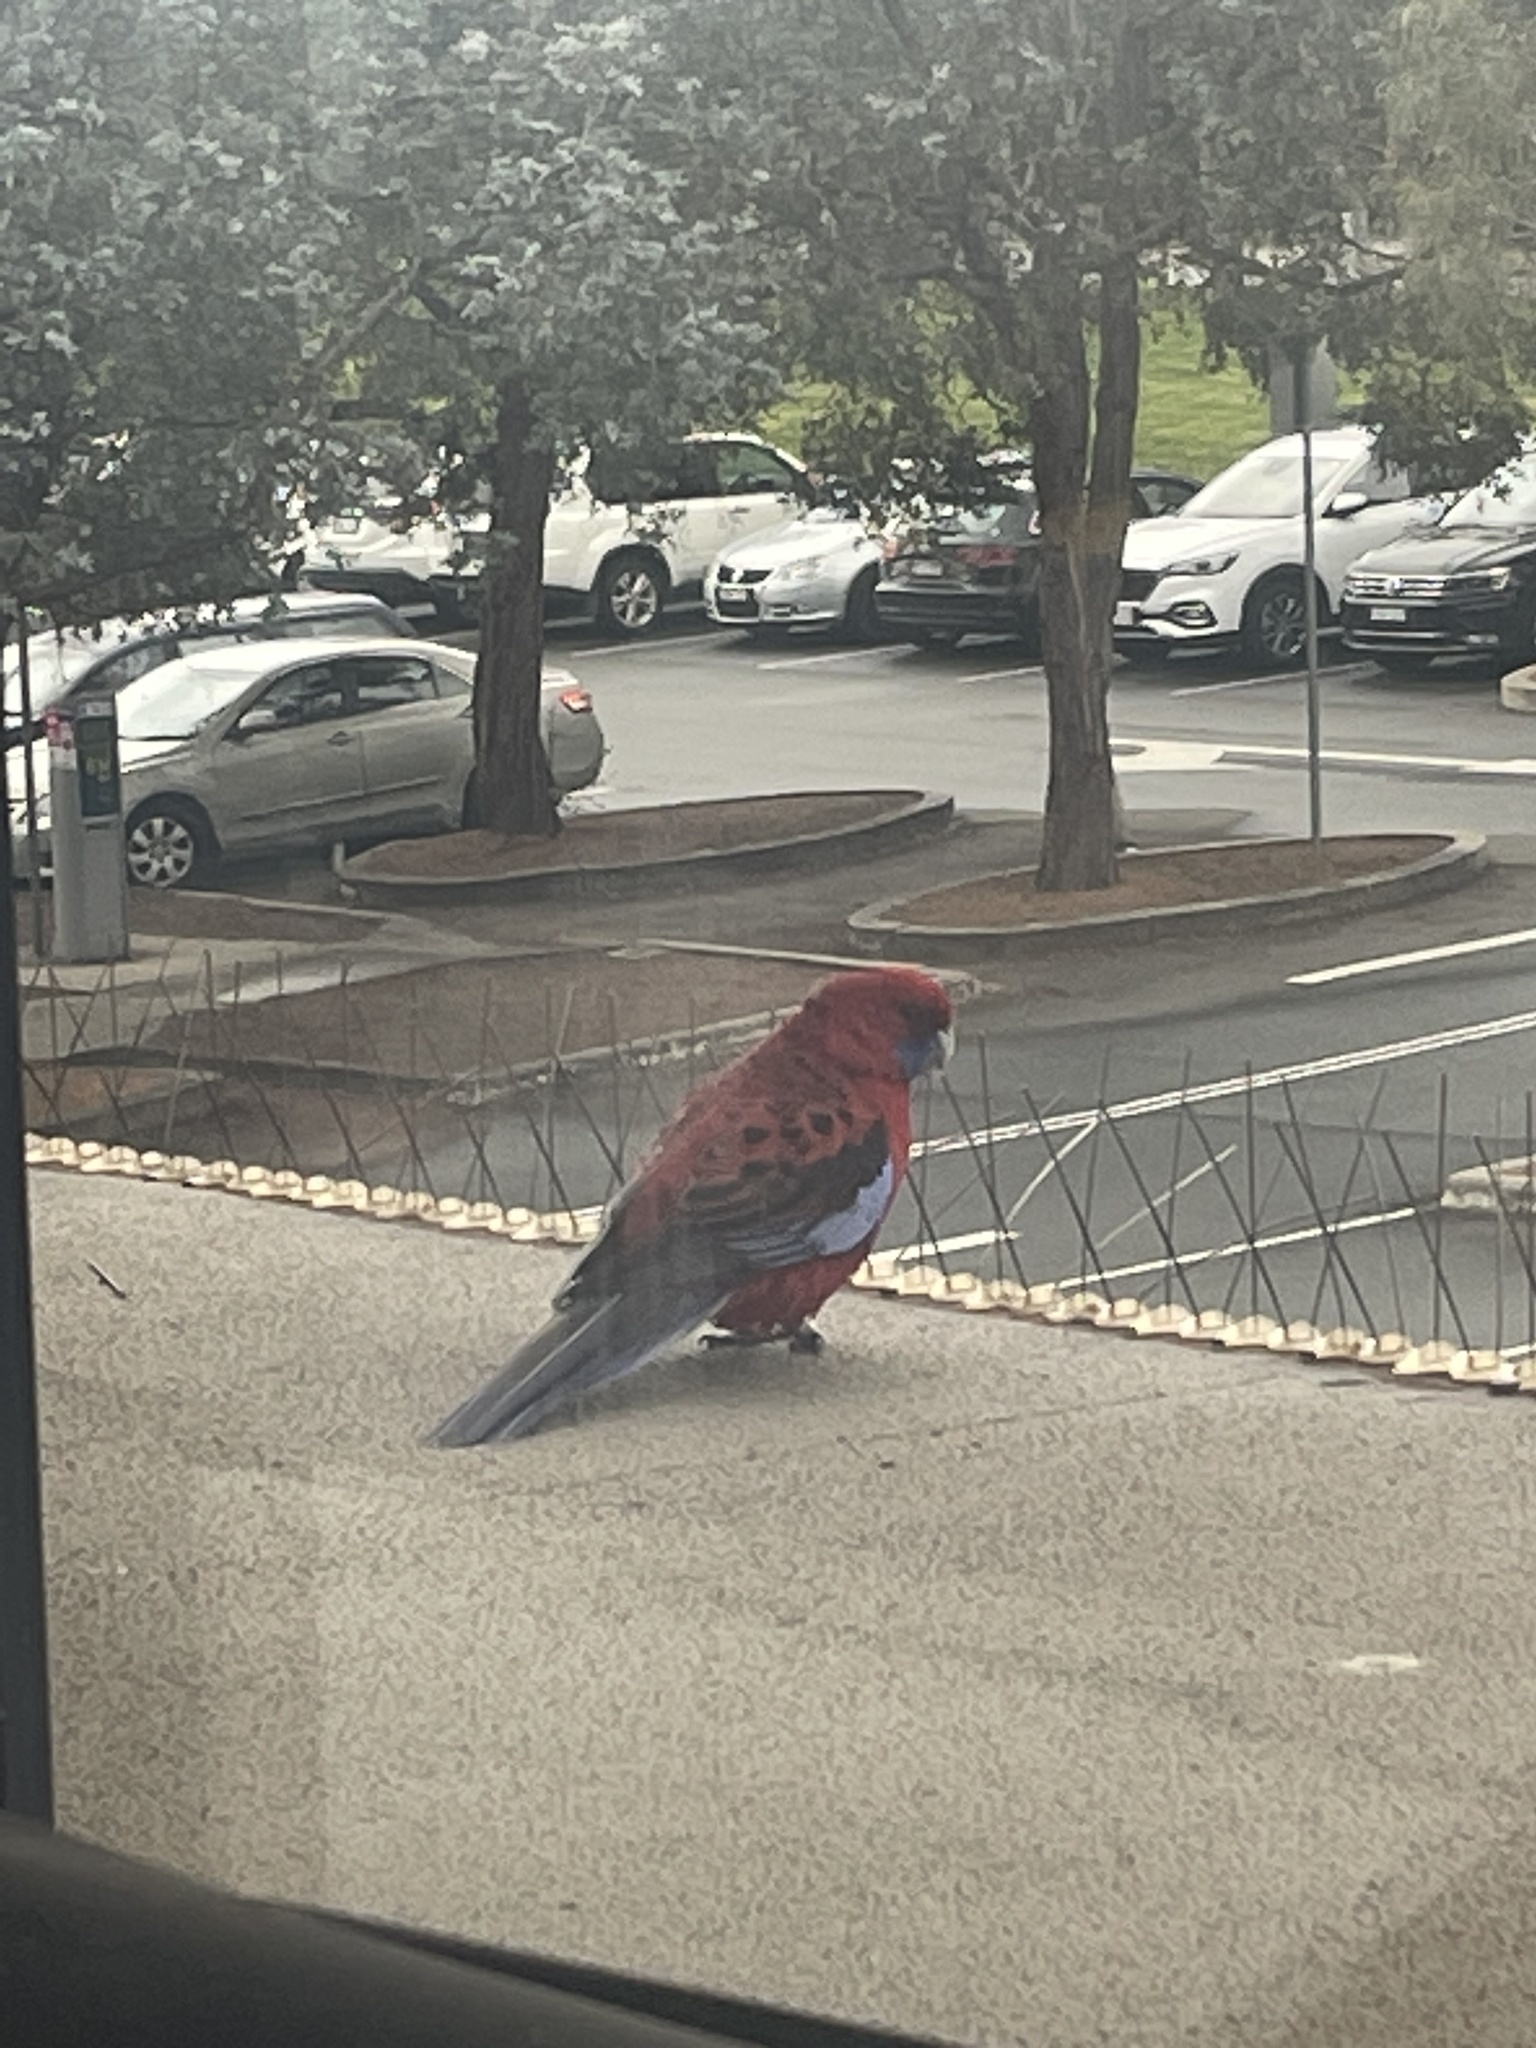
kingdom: Animalia
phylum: Chordata
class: Aves
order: Psittaciformes
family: Psittacidae
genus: Platycercus
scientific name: Platycercus elegans
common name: Crimson rosella
